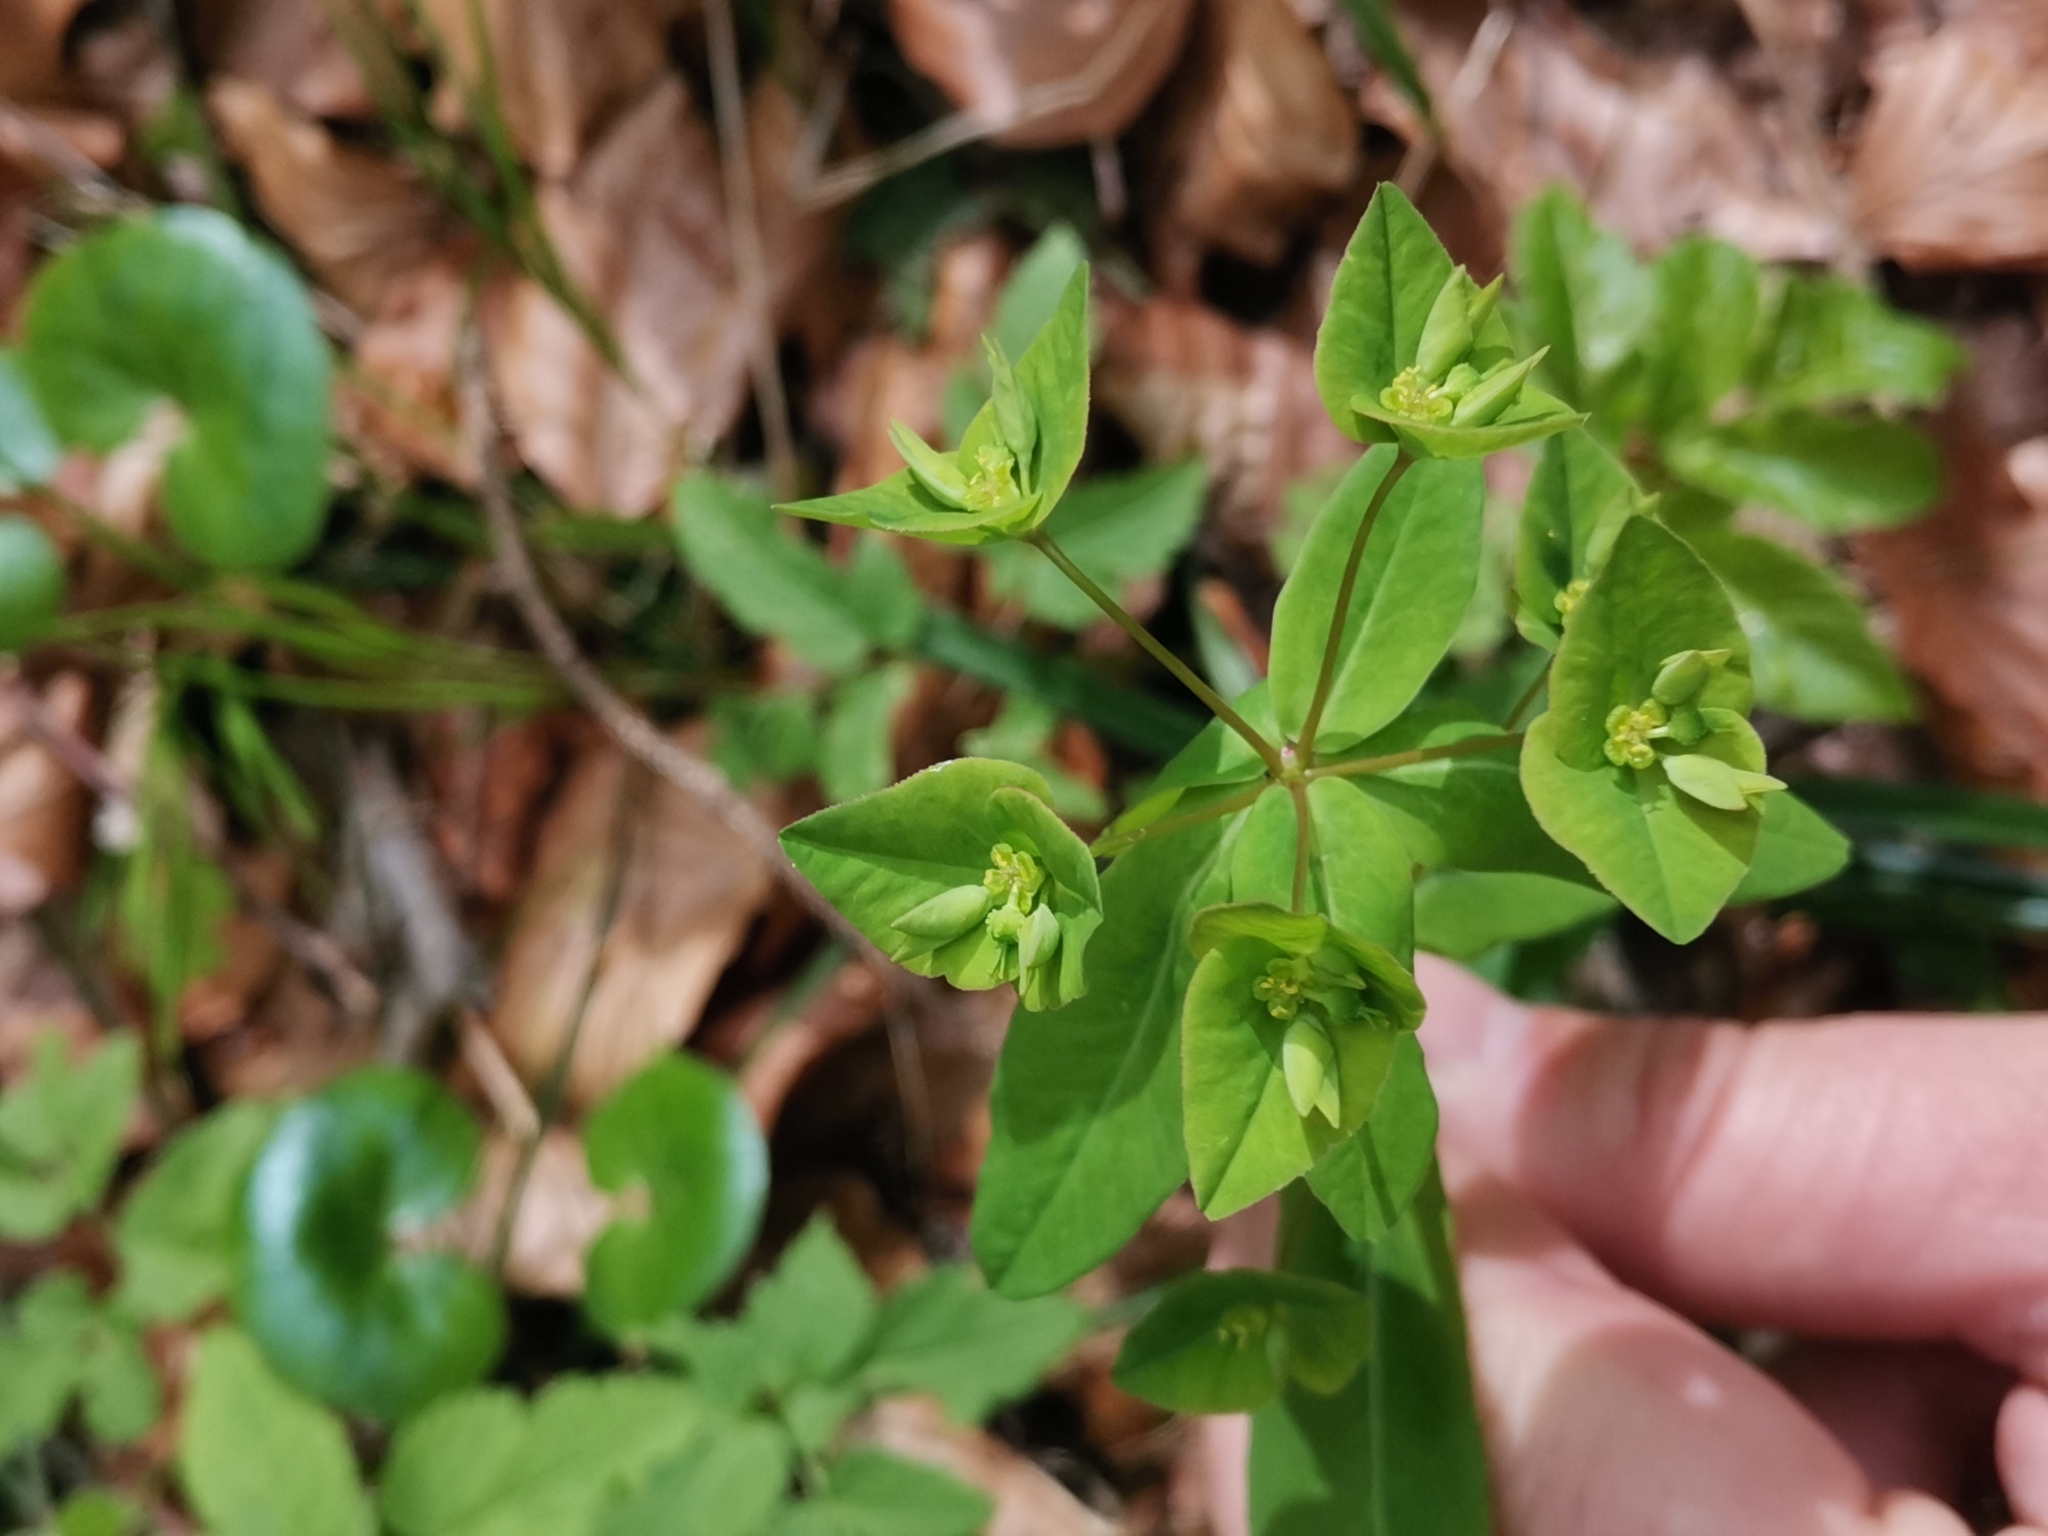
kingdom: Plantae
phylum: Tracheophyta
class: Magnoliopsida
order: Malpighiales
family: Euphorbiaceae
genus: Euphorbia
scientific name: Euphorbia dulcis
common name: Sweet spurge
